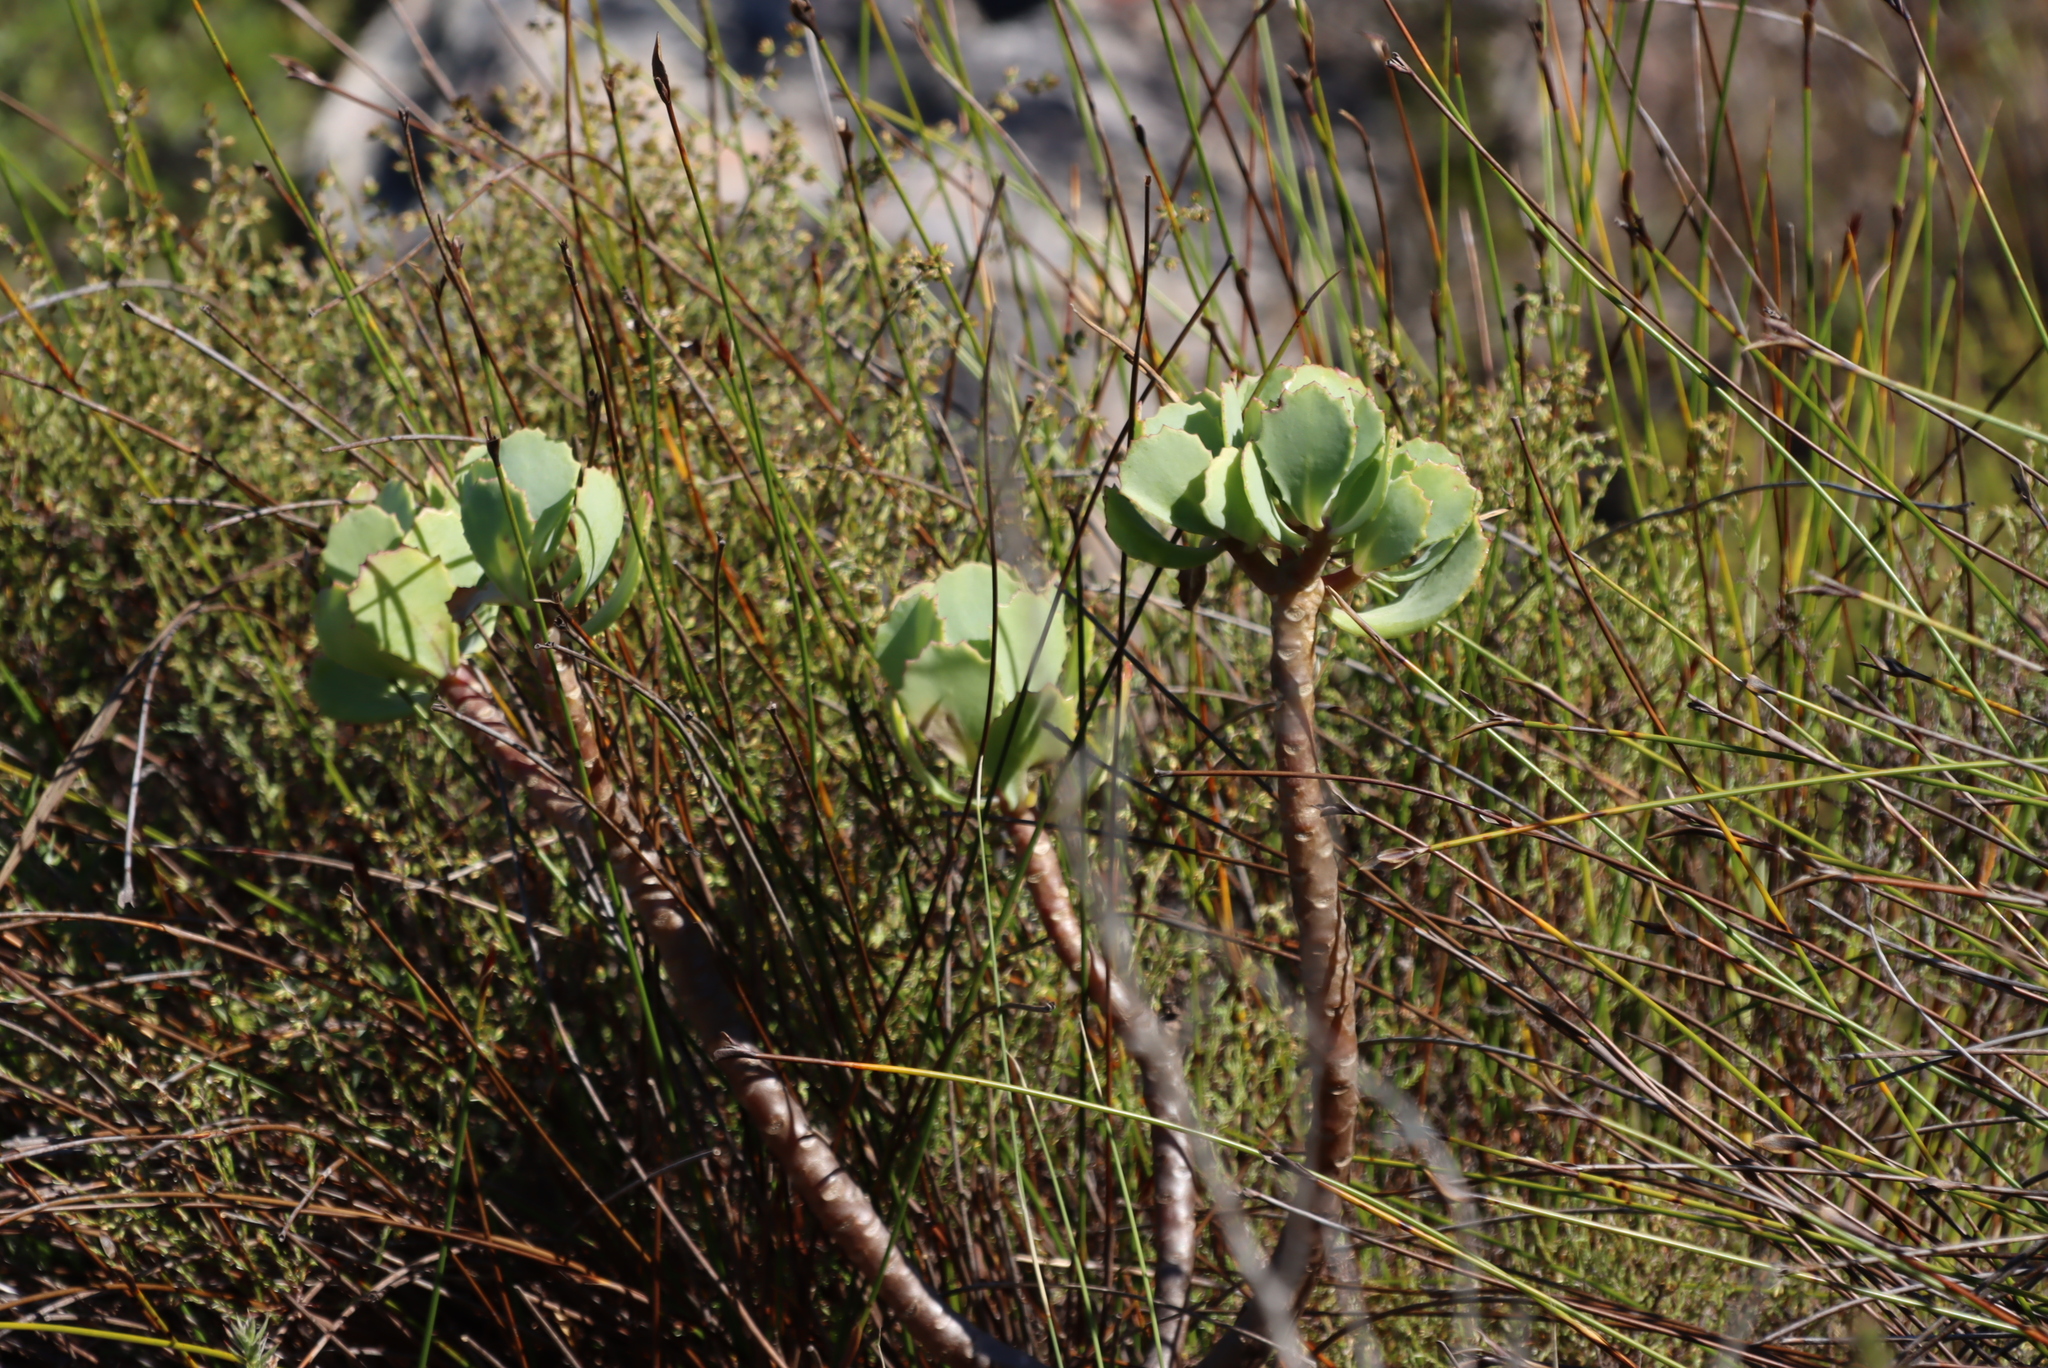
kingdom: Plantae
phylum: Tracheophyta
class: Magnoliopsida
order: Asterales
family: Asteraceae
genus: Othonna
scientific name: Othonna dentata
